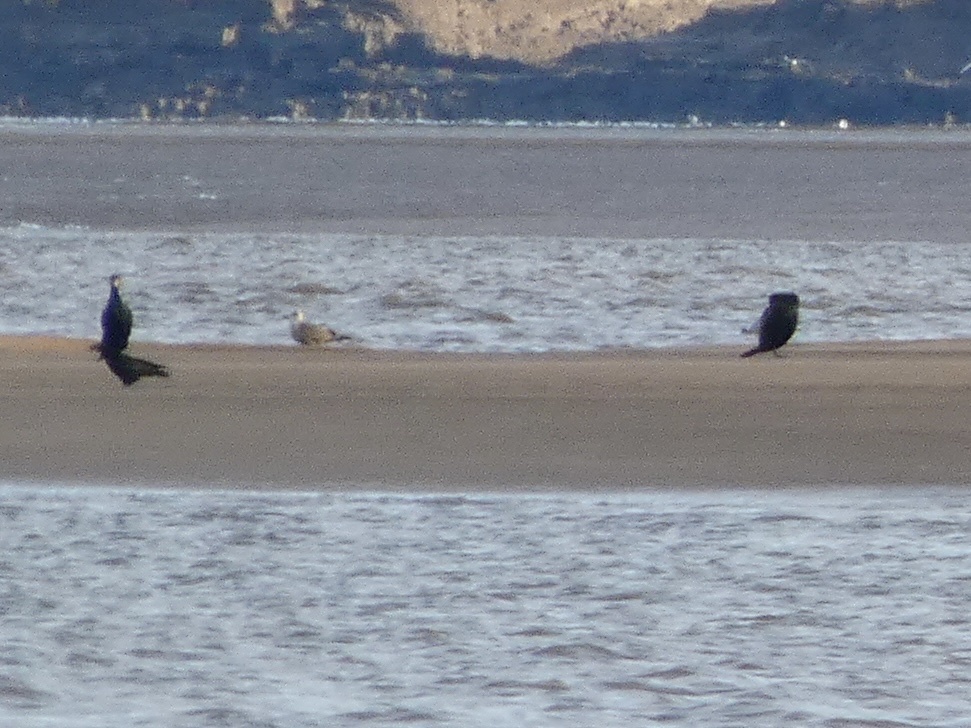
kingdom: Animalia
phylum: Chordata
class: Aves
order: Suliformes
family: Phalacrocoracidae
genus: Phalacrocorax
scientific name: Phalacrocorax carbo
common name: Great cormorant
